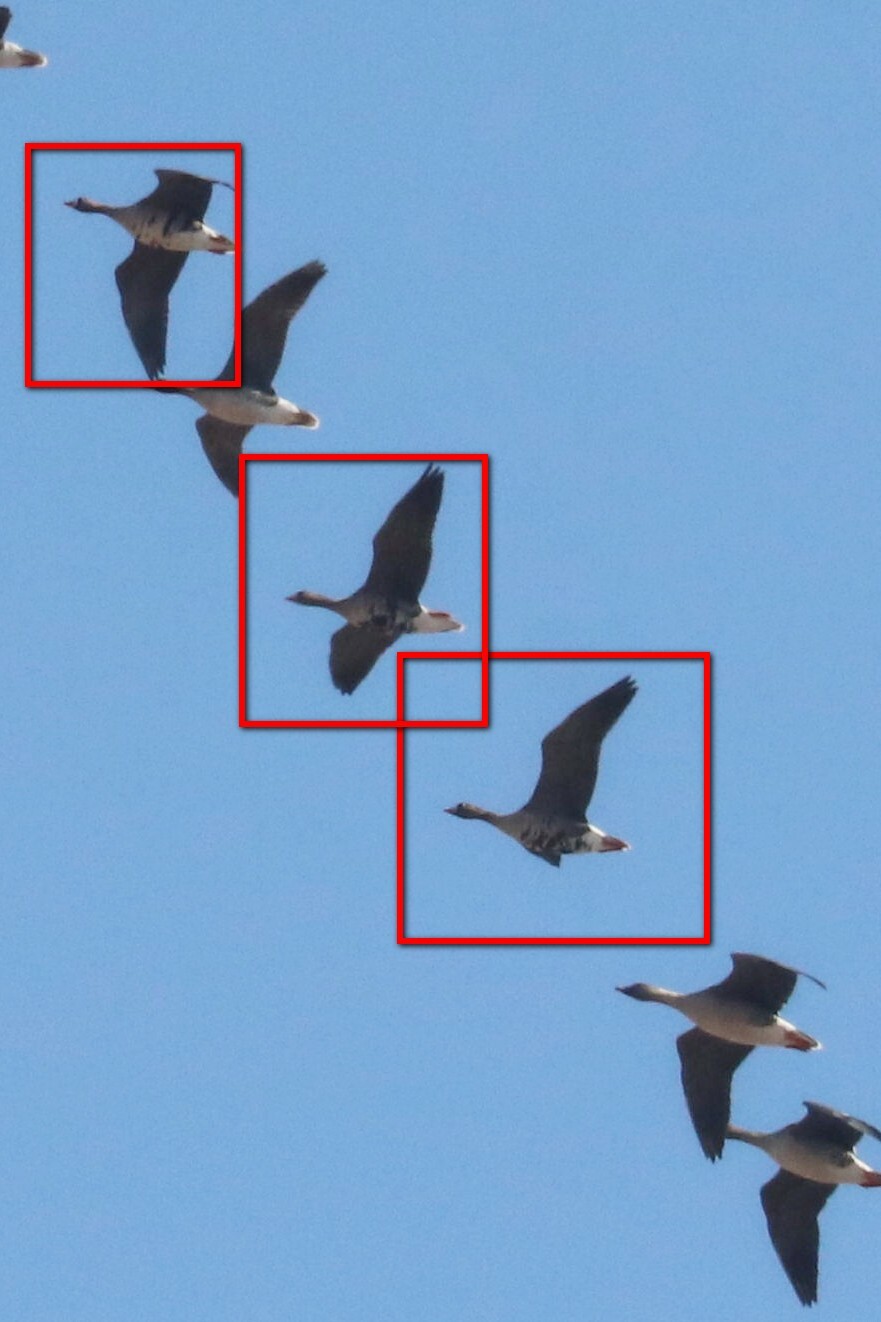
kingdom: Animalia
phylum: Chordata
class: Aves
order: Anseriformes
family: Anatidae
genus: Anser
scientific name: Anser albifrons
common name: Greater white-fronted goose
